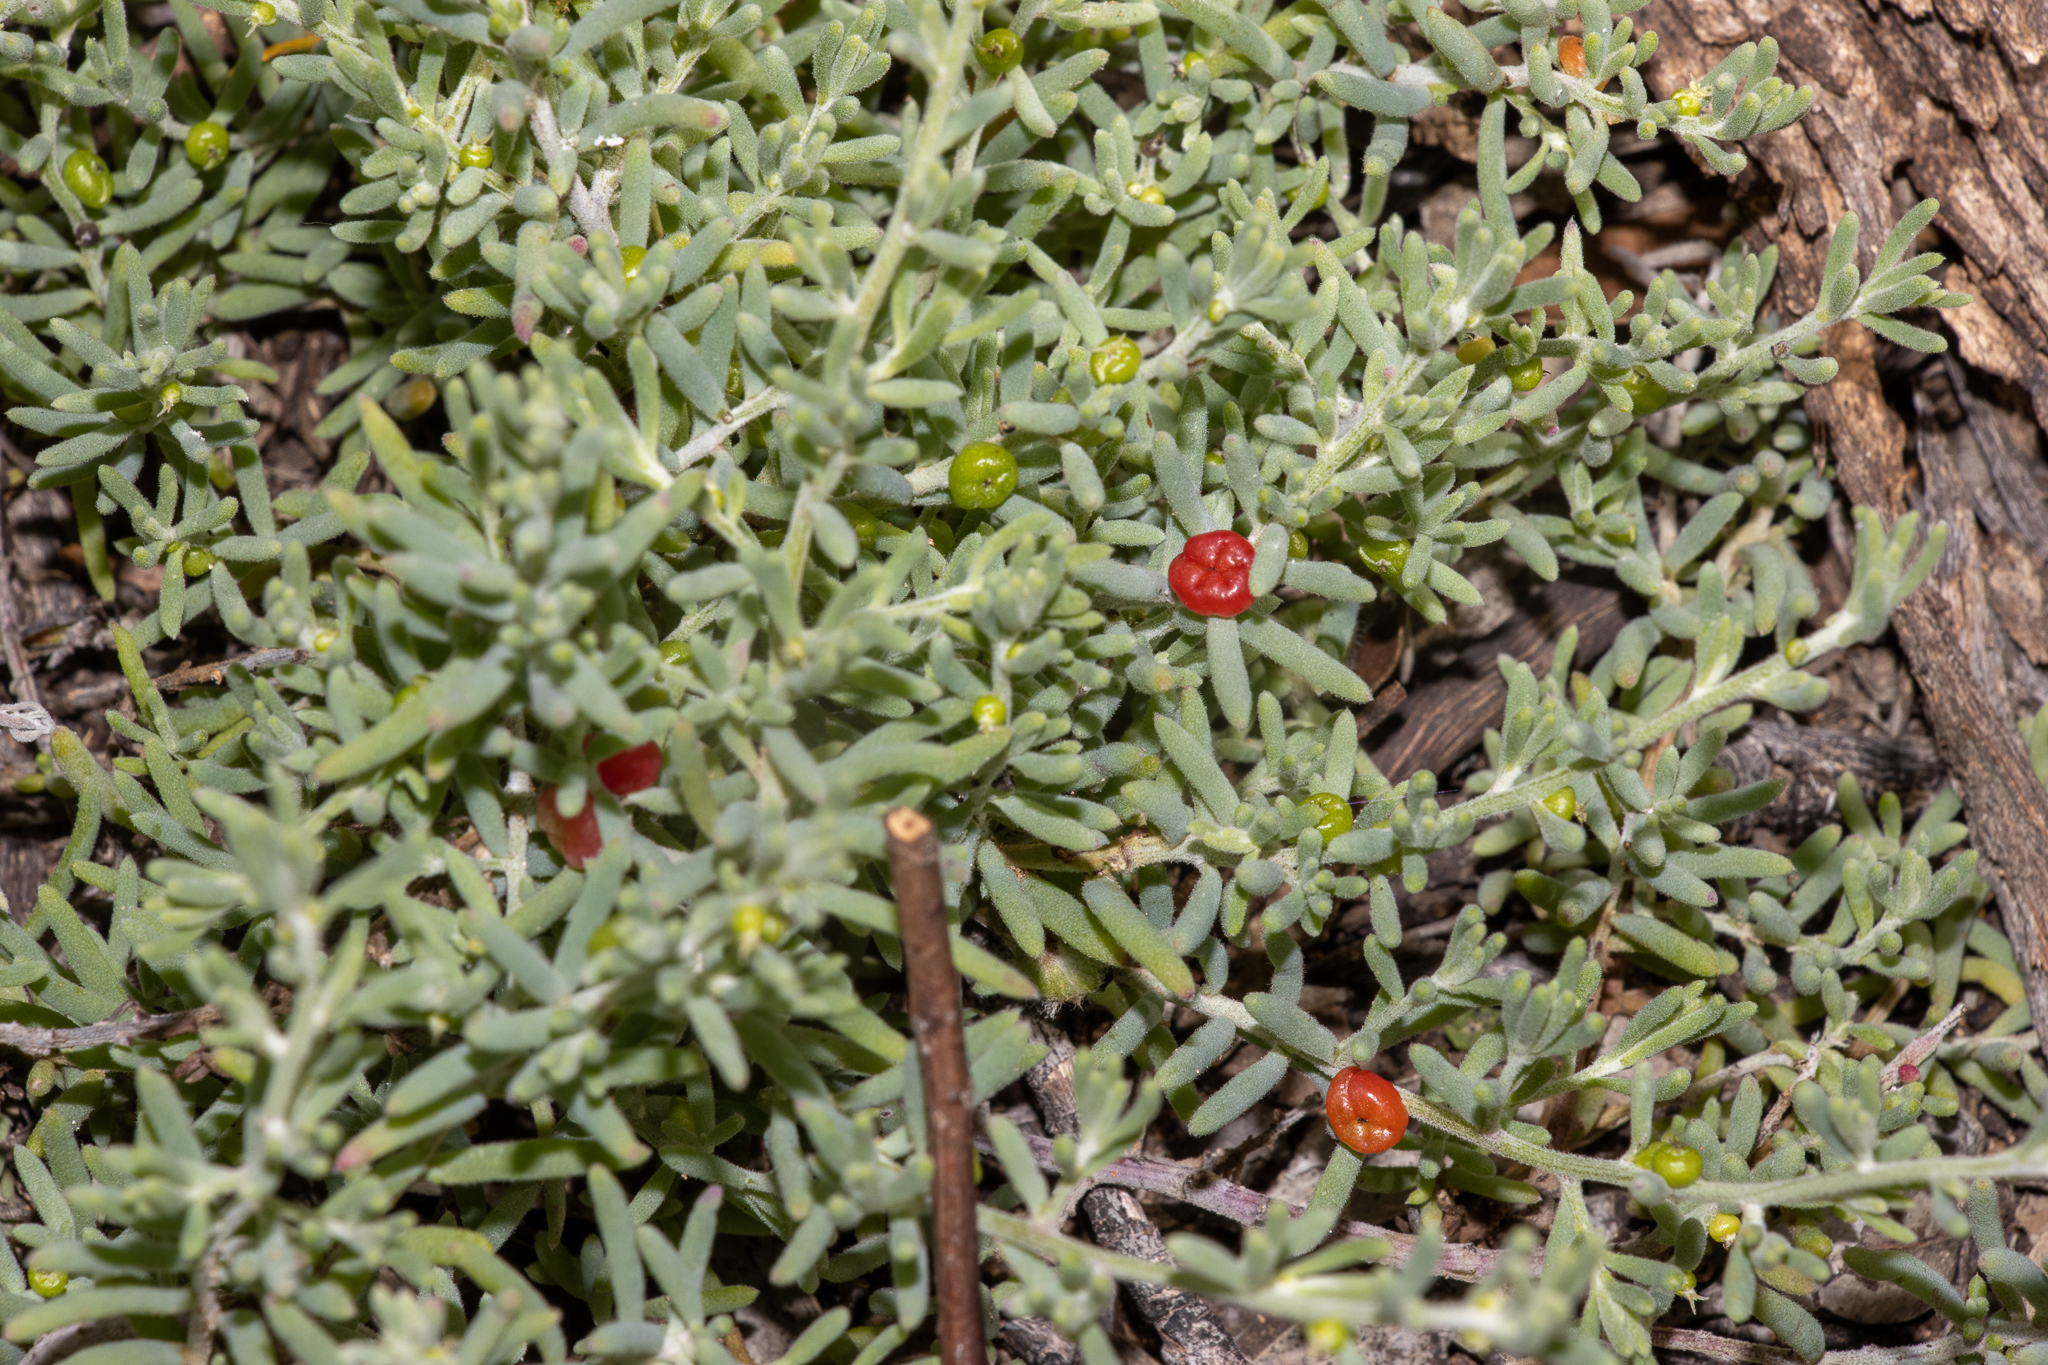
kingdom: Plantae
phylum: Tracheophyta
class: Magnoliopsida
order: Caryophyllales
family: Amaranthaceae
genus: Enchylaena
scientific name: Enchylaena tomentosa
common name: Ruby saltbush
